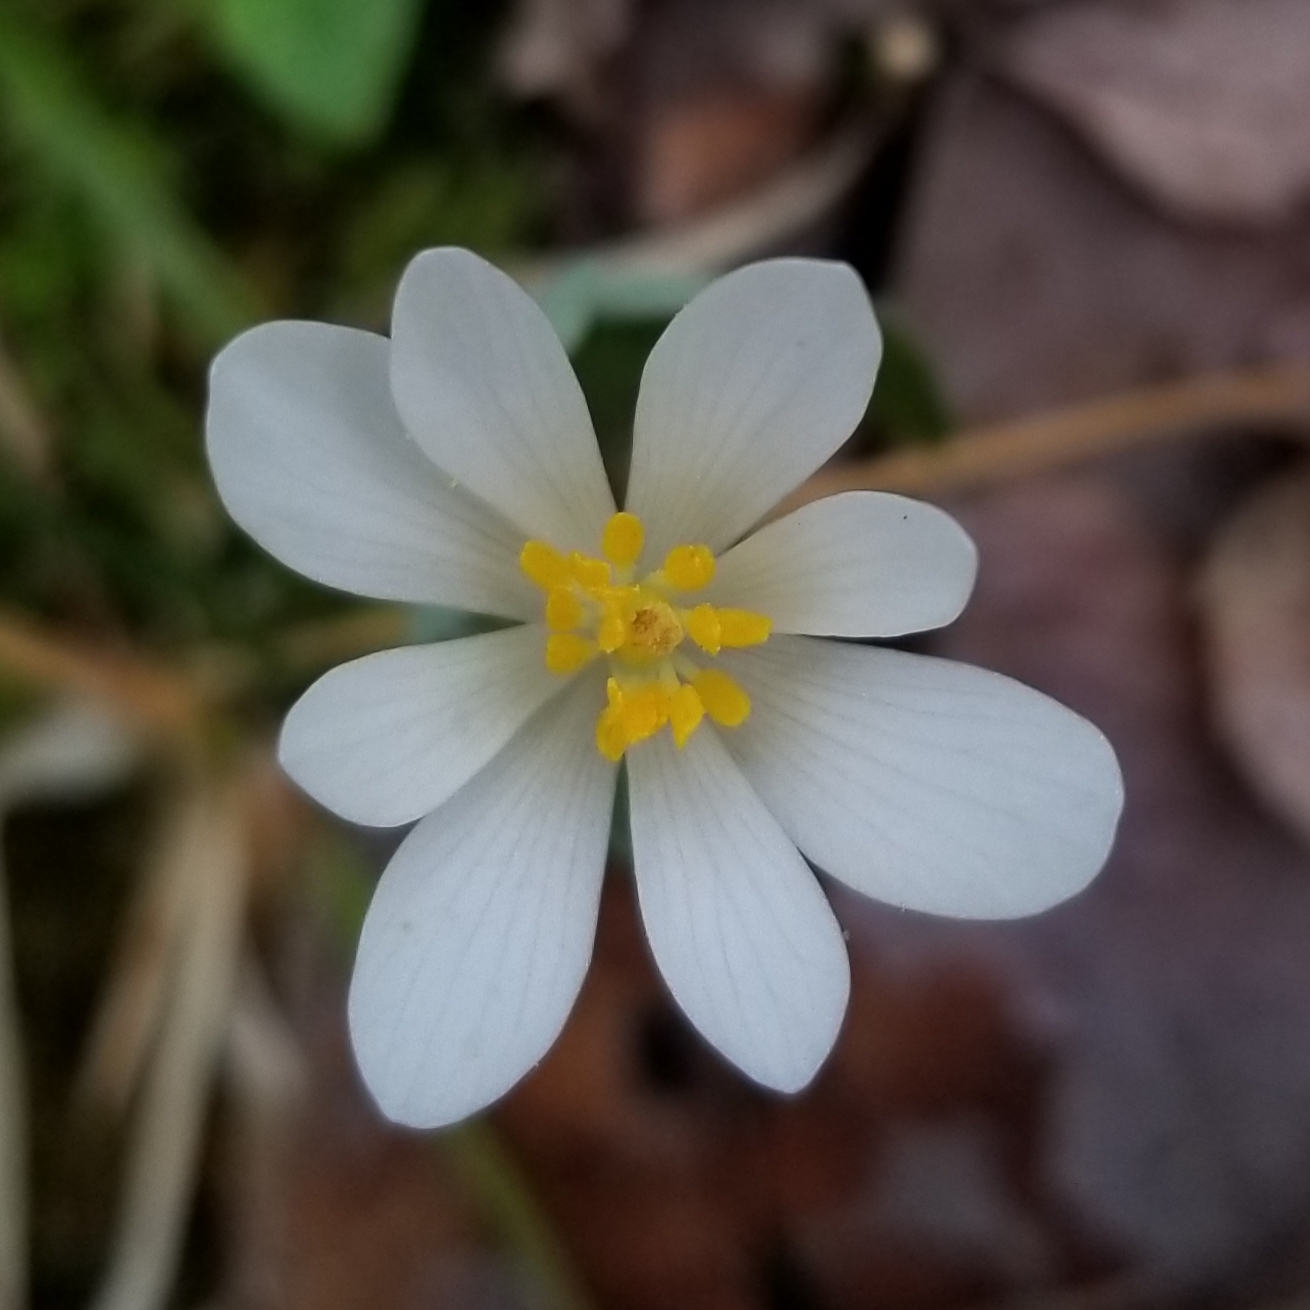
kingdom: Plantae
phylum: Tracheophyta
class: Magnoliopsida
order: Ranunculales
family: Papaveraceae
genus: Sanguinaria
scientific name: Sanguinaria canadensis
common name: Bloodroot
